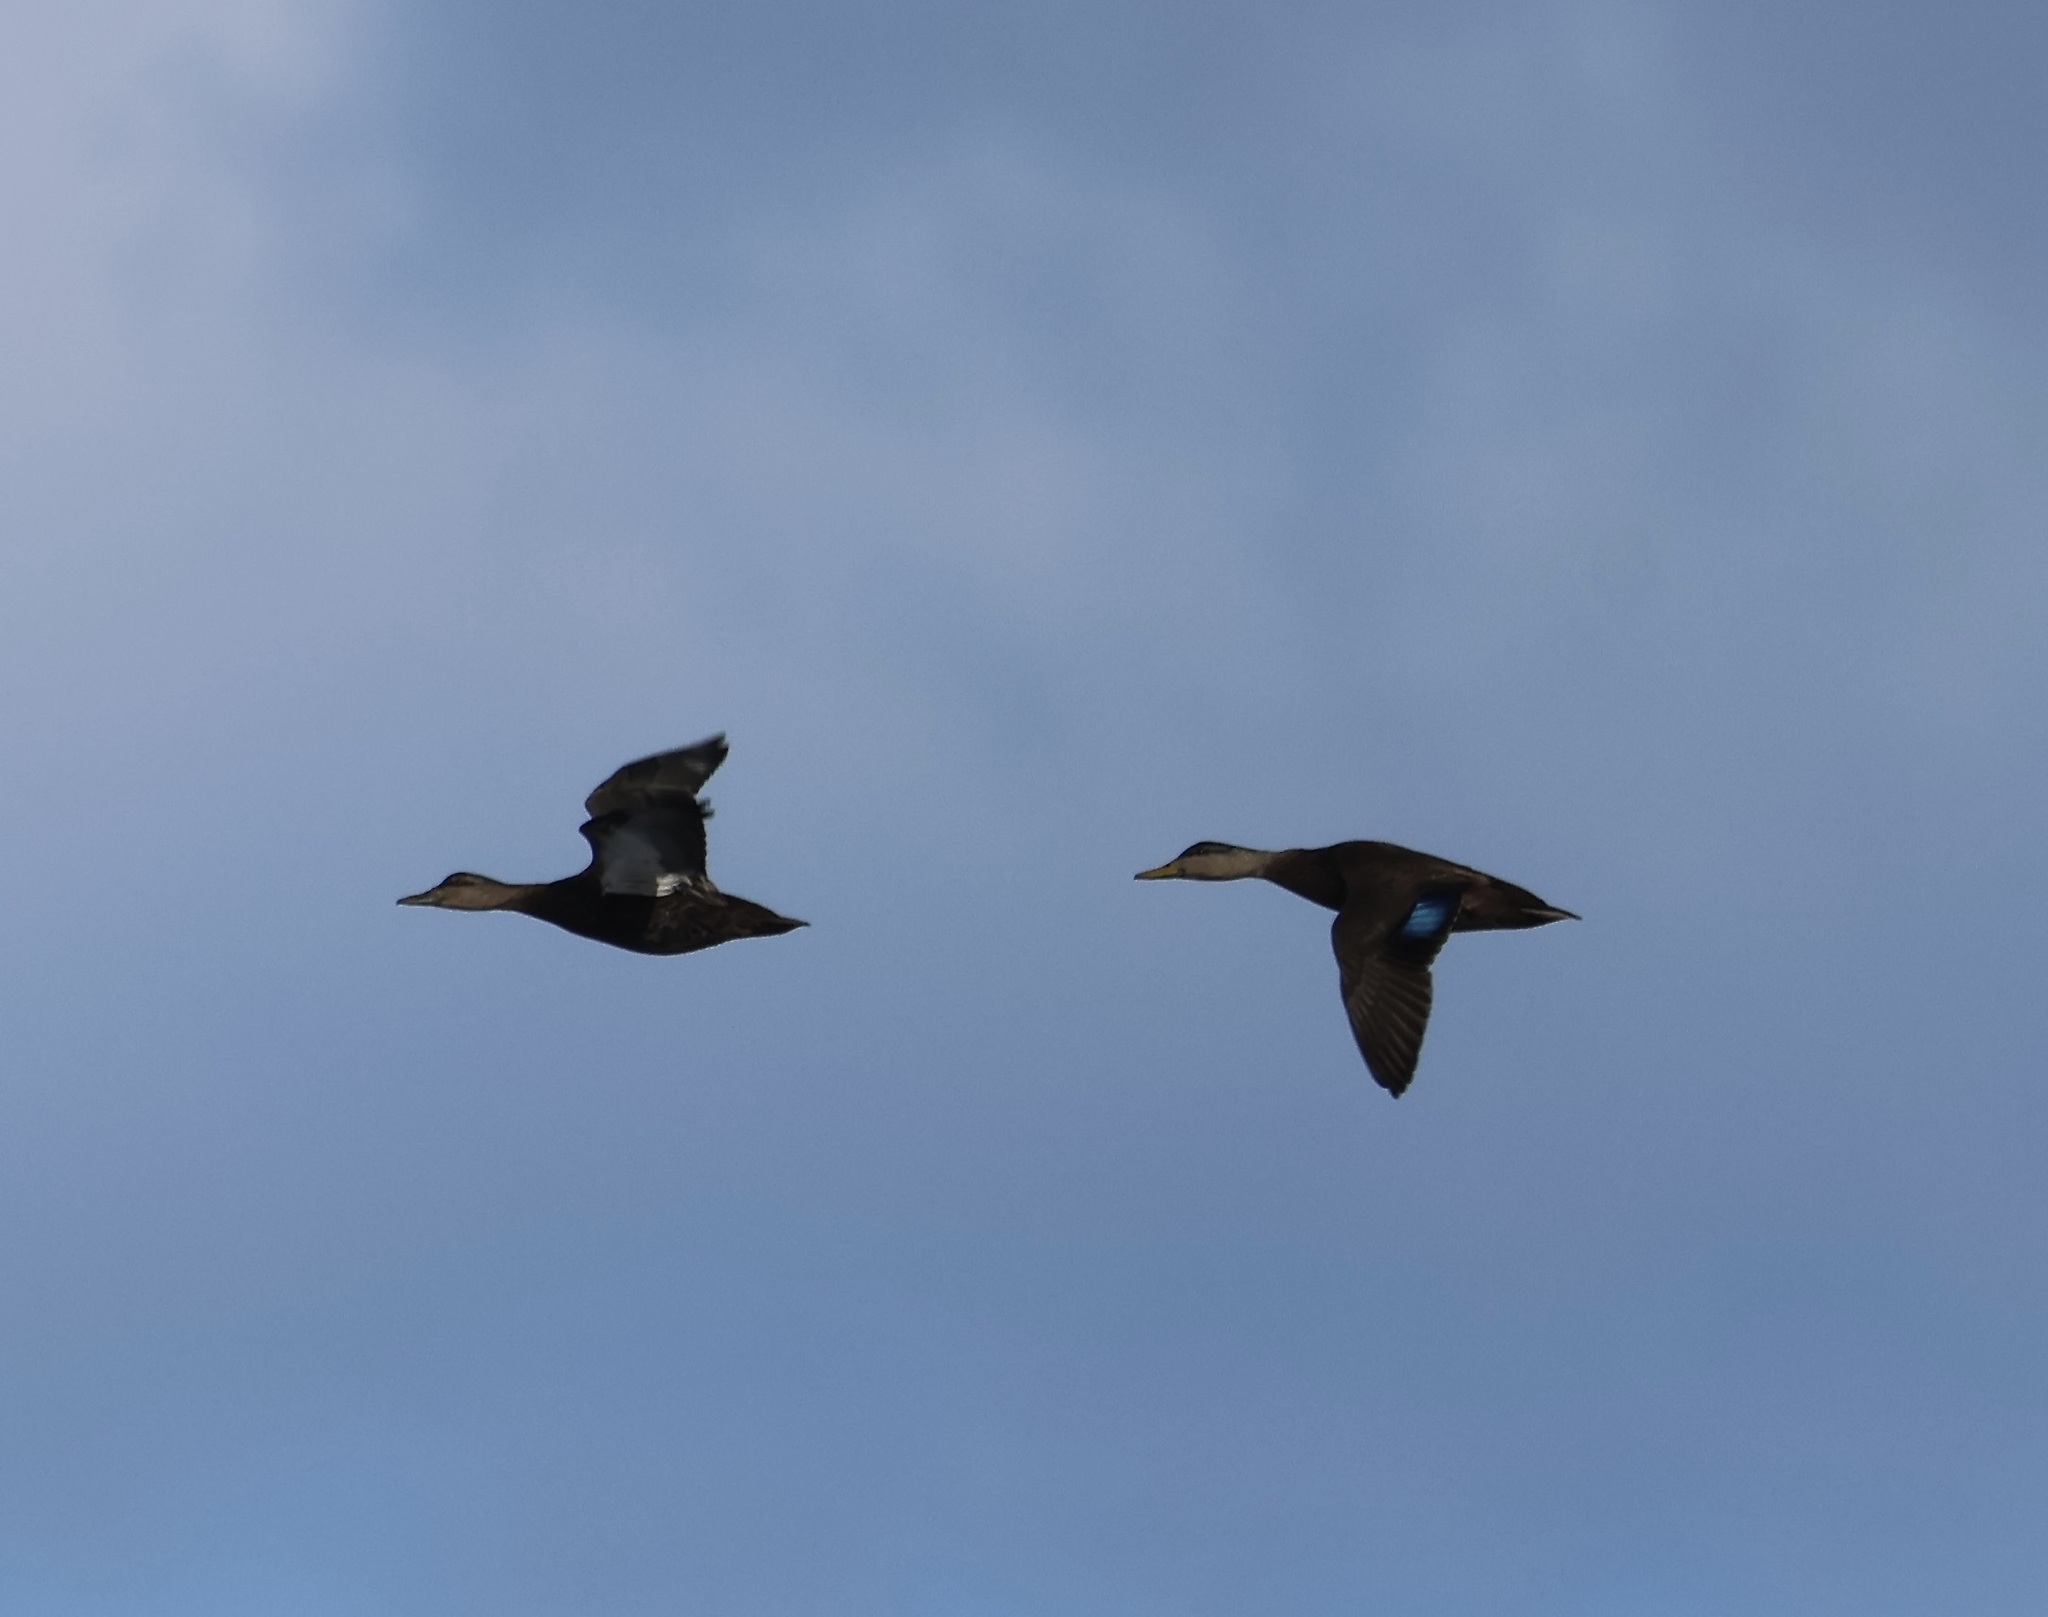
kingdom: Animalia
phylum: Chordata
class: Aves
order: Anseriformes
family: Anatidae
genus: Anas
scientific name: Anas rubripes
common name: American black duck
